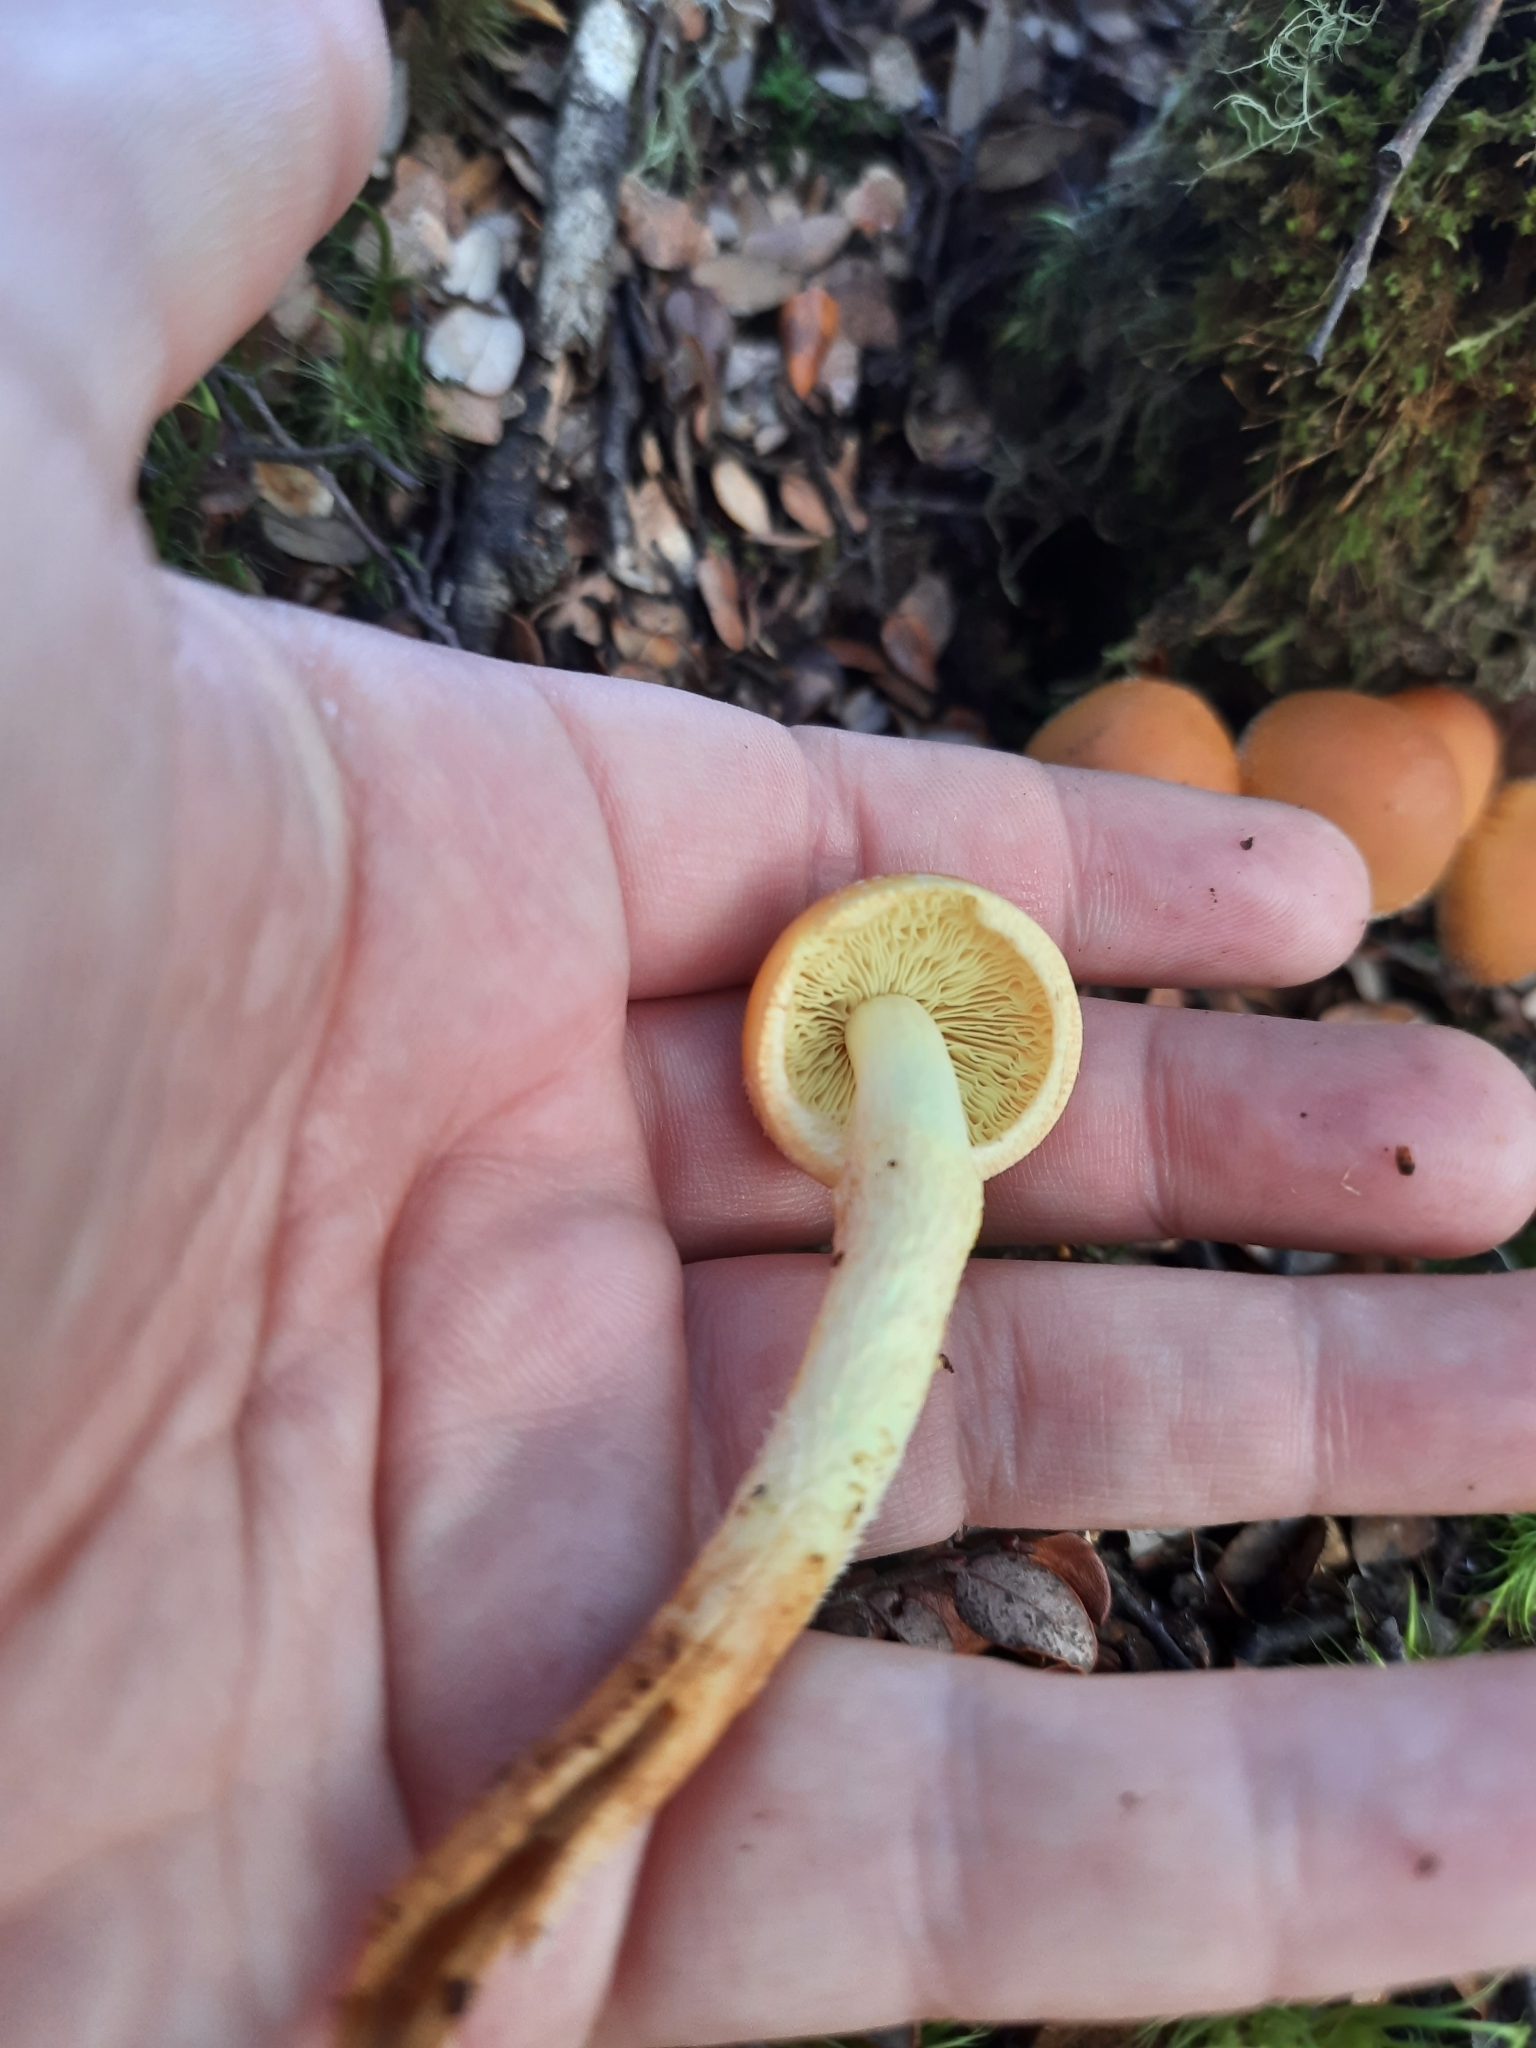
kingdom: Fungi
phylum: Basidiomycota
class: Agaricomycetes
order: Agaricales
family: Strophariaceae
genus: Hypholoma
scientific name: Hypholoma australianum
